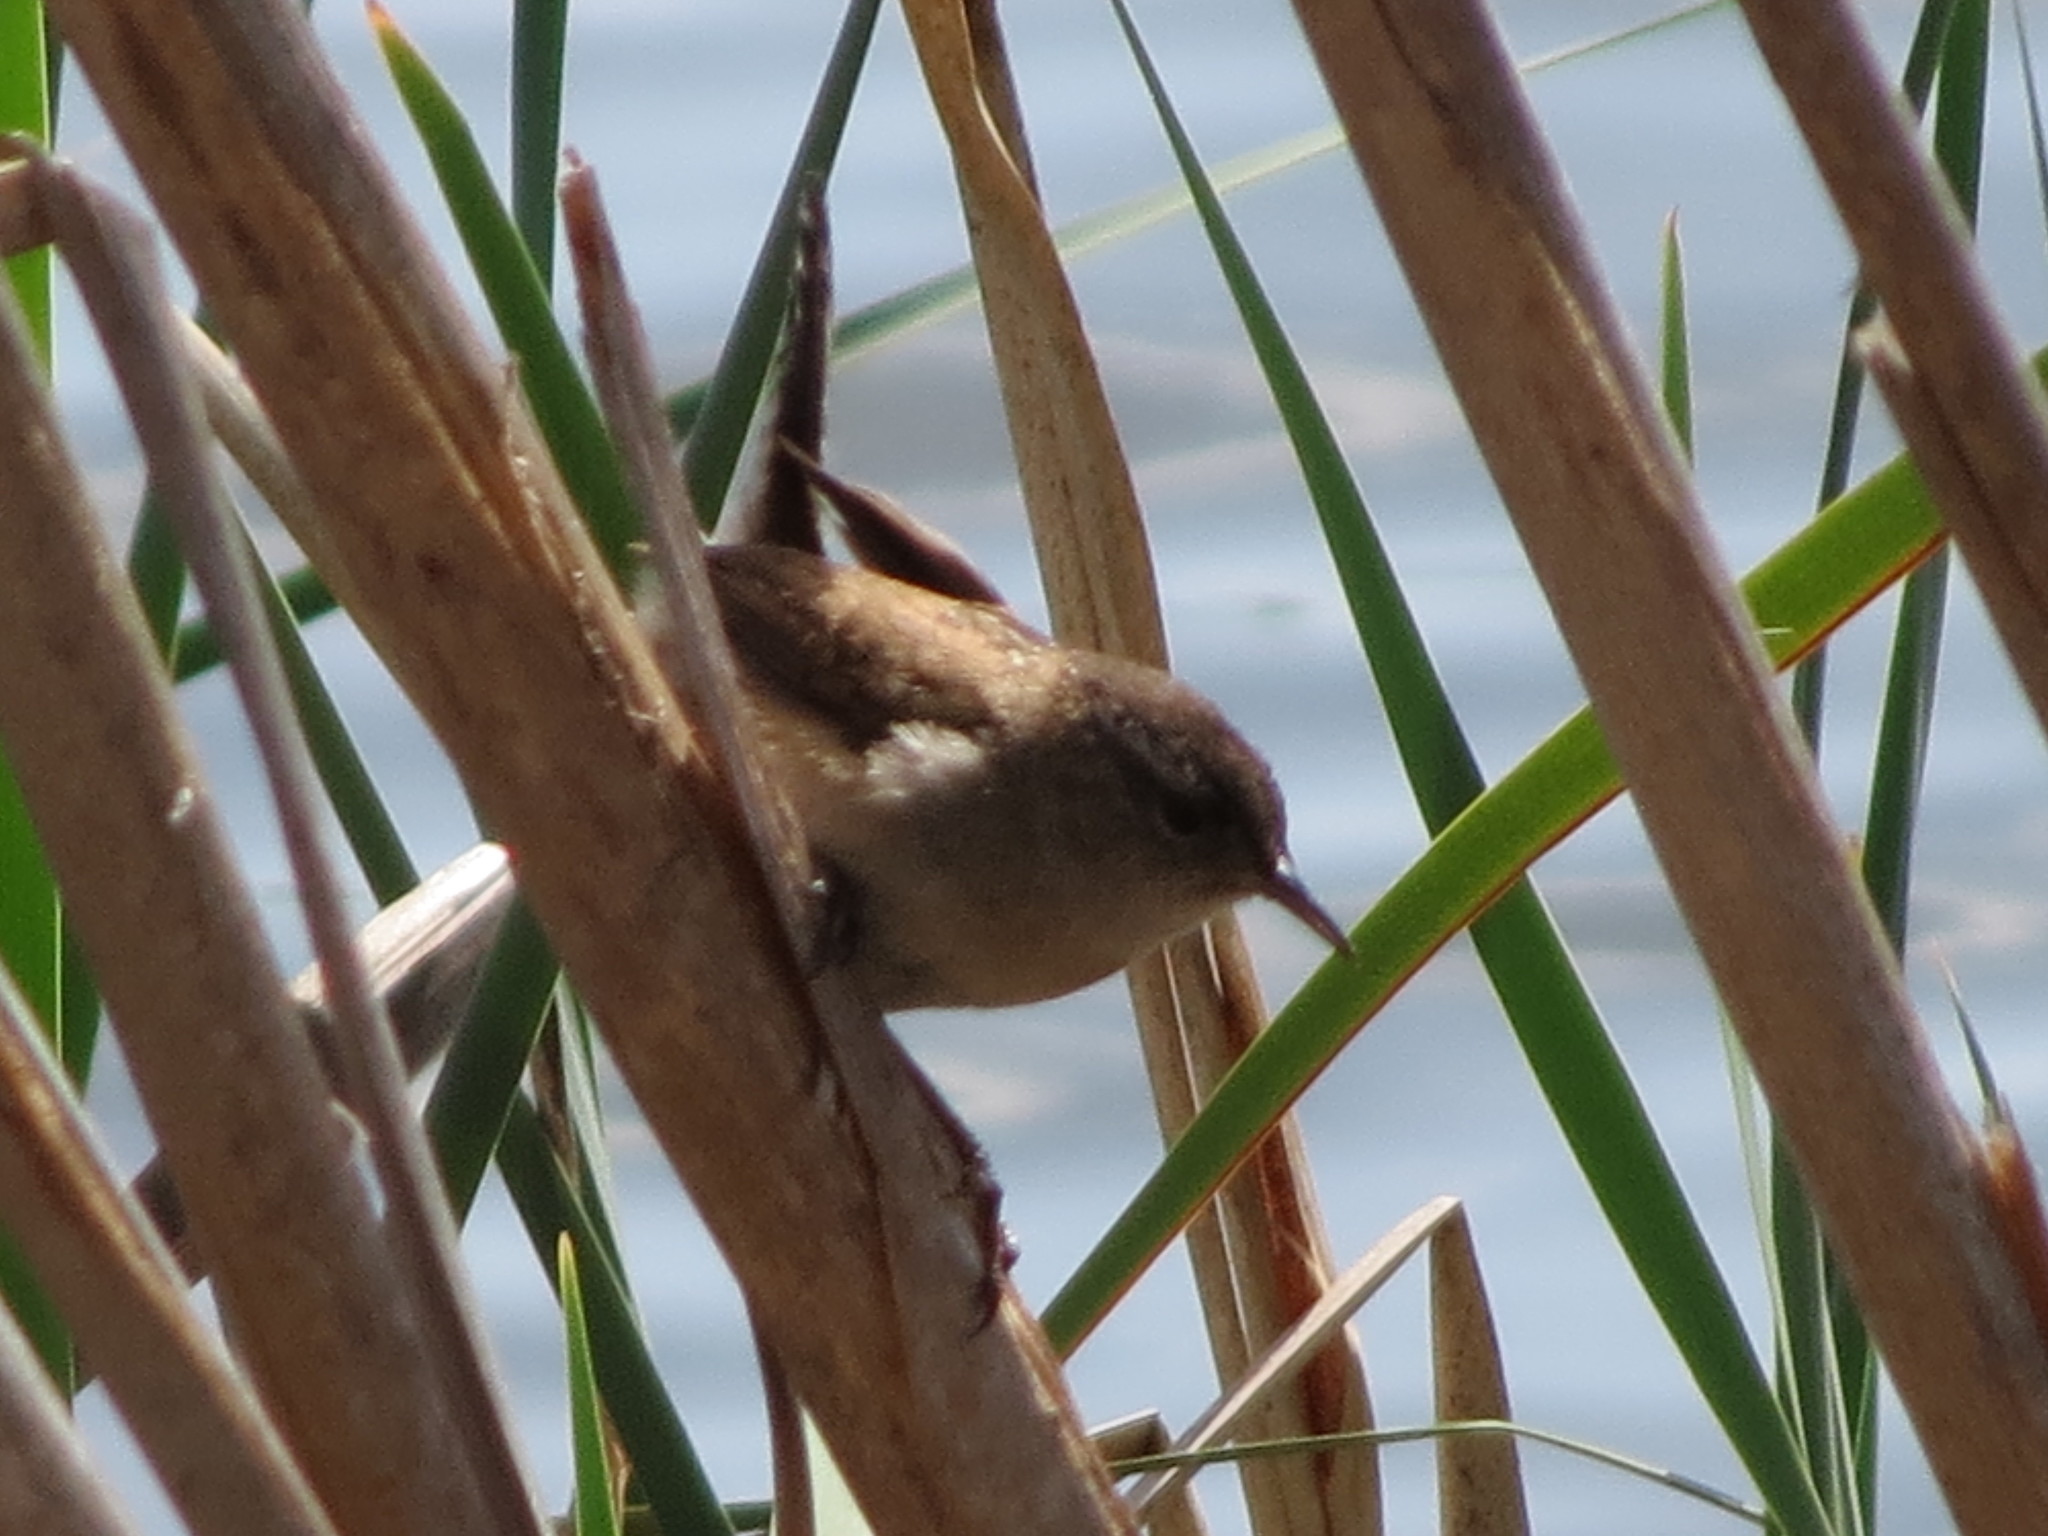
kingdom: Animalia
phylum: Chordata
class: Aves
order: Passeriformes
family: Troglodytidae
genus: Cistothorus
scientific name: Cistothorus palustris
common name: Marsh wren
